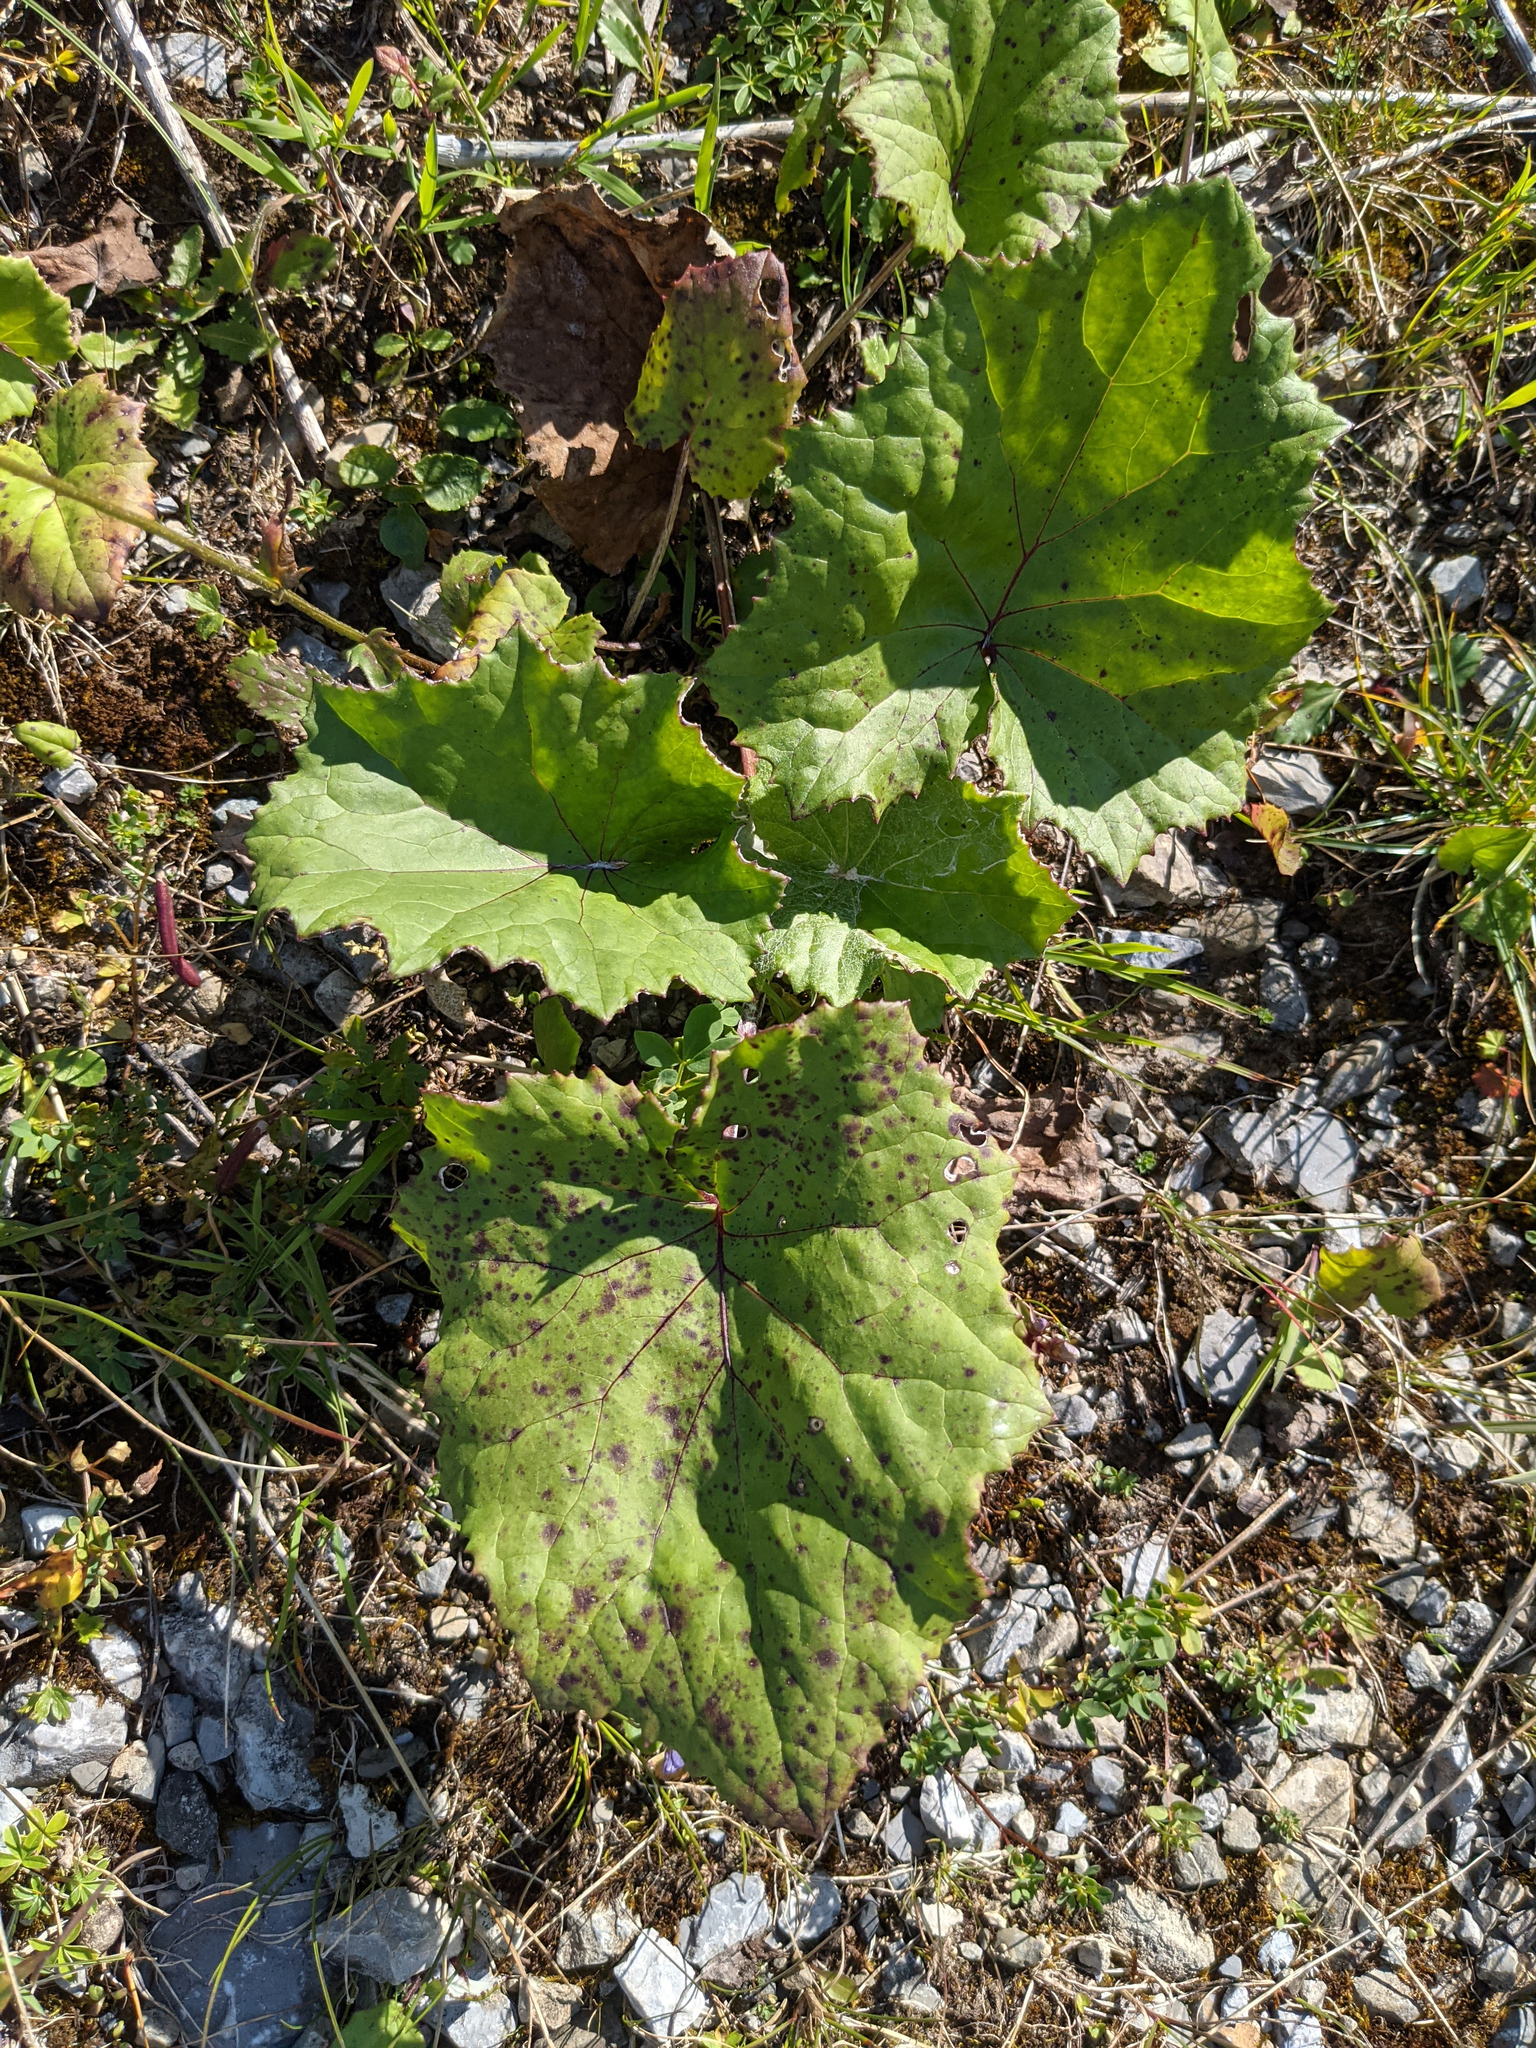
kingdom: Plantae
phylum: Tracheophyta
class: Magnoliopsida
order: Asterales
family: Asteraceae
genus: Tussilago
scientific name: Tussilago farfara
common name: Coltsfoot
